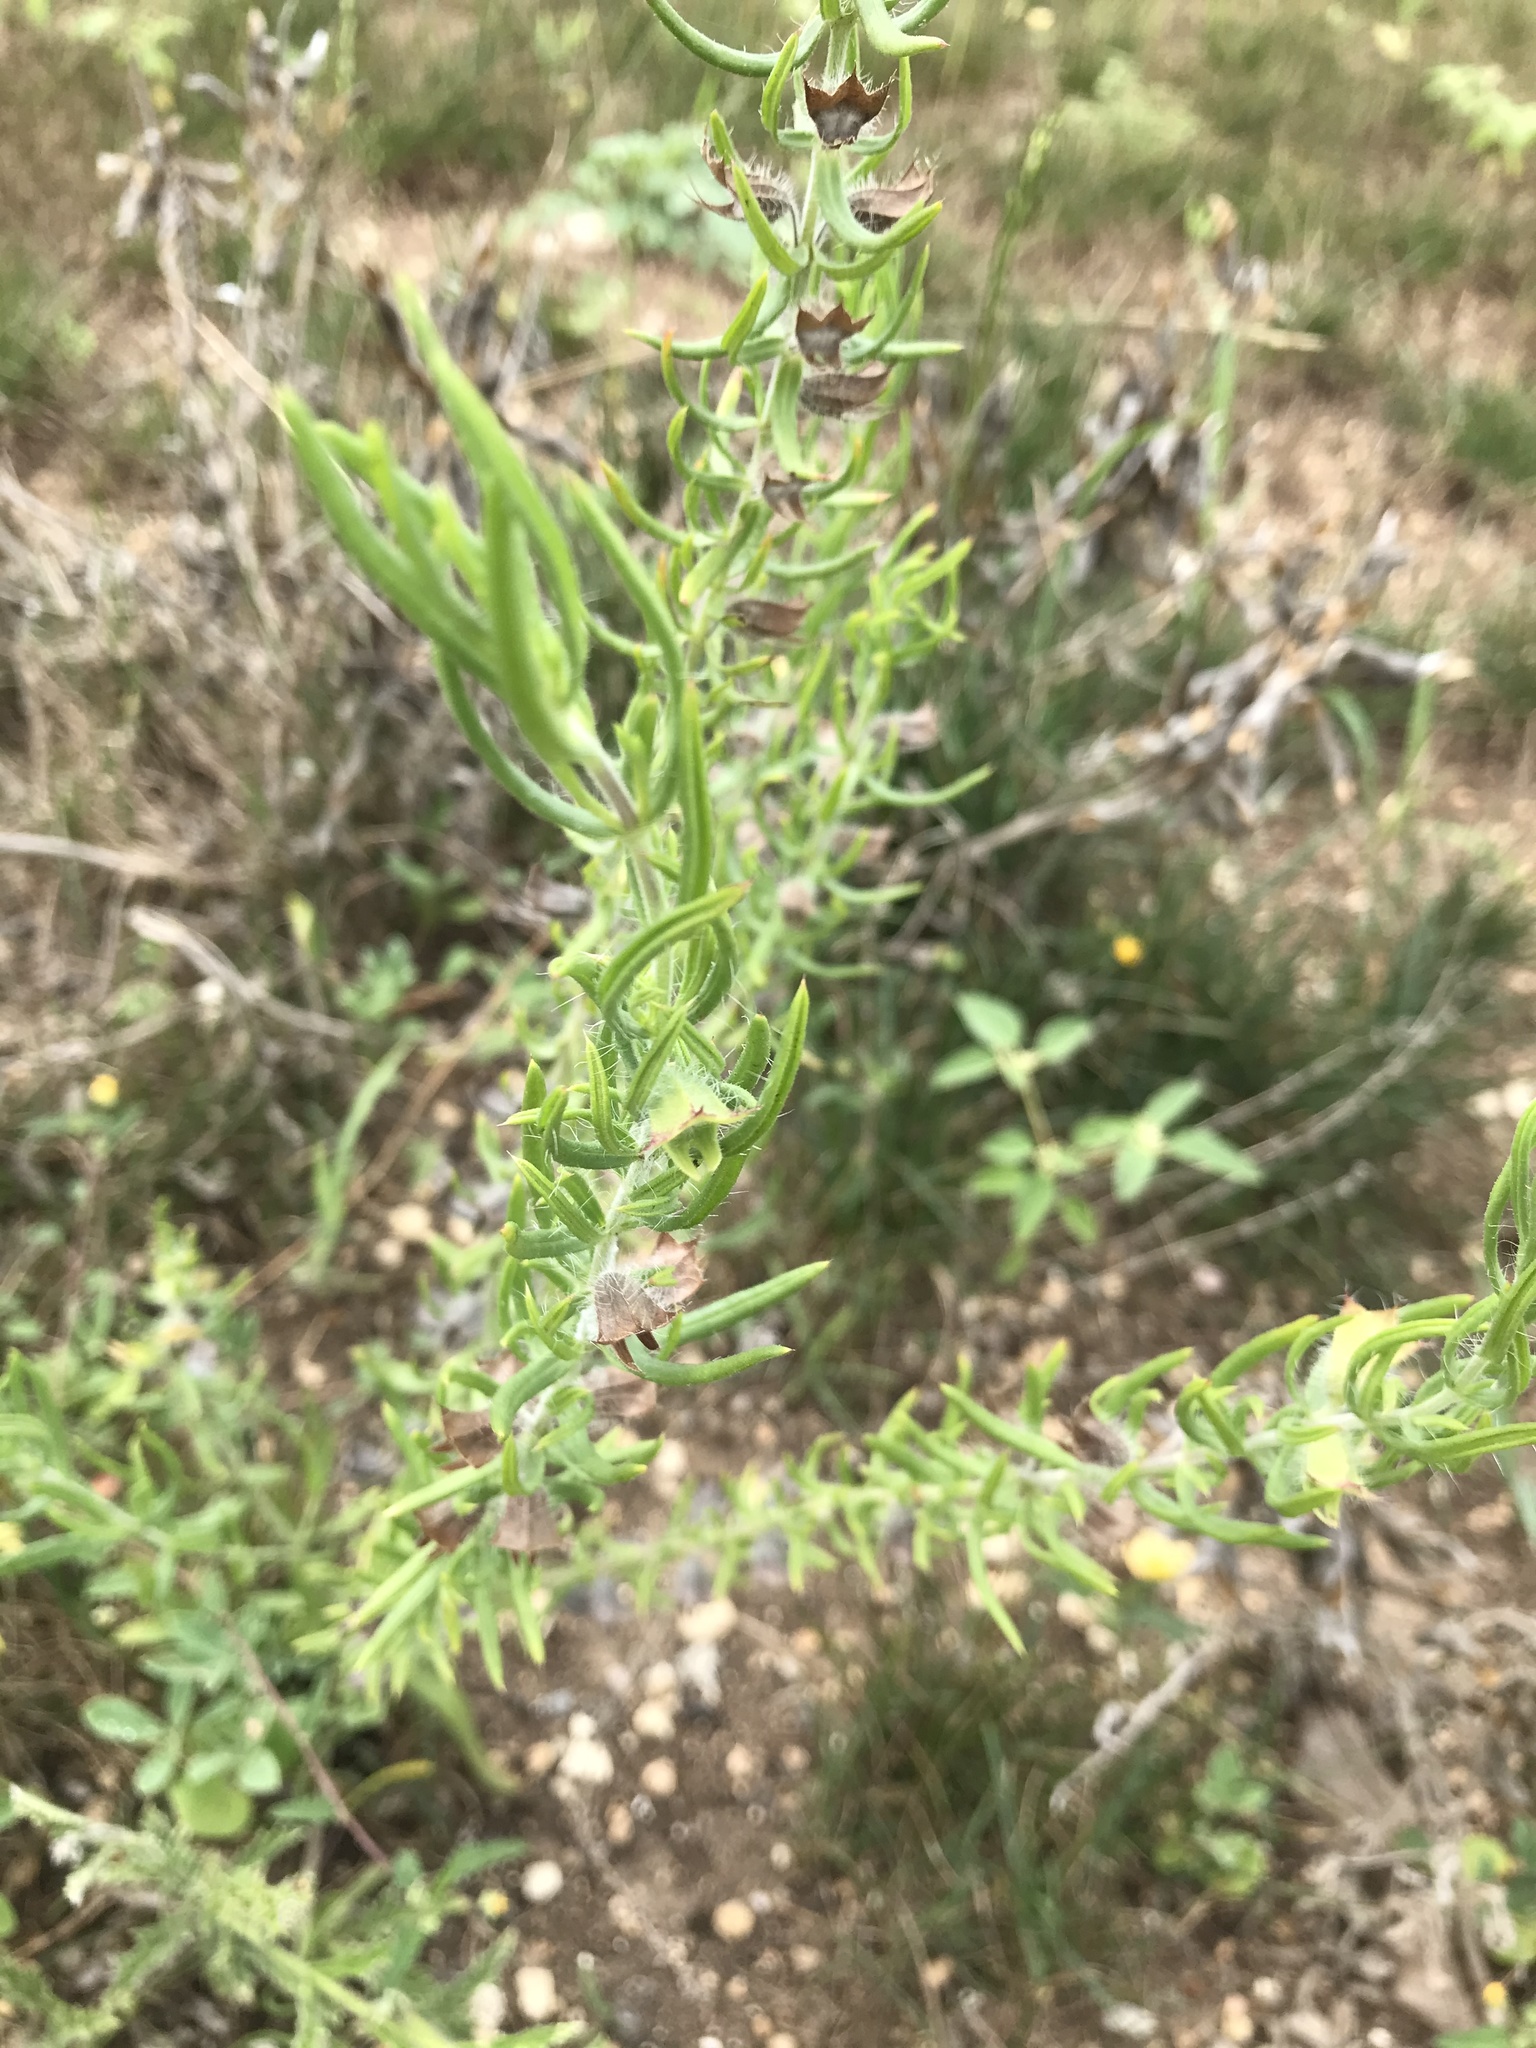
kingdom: Plantae
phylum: Tracheophyta
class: Magnoliopsida
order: Lamiales
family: Lamiaceae
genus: Salvia
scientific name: Salvia texana
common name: Texas sage
